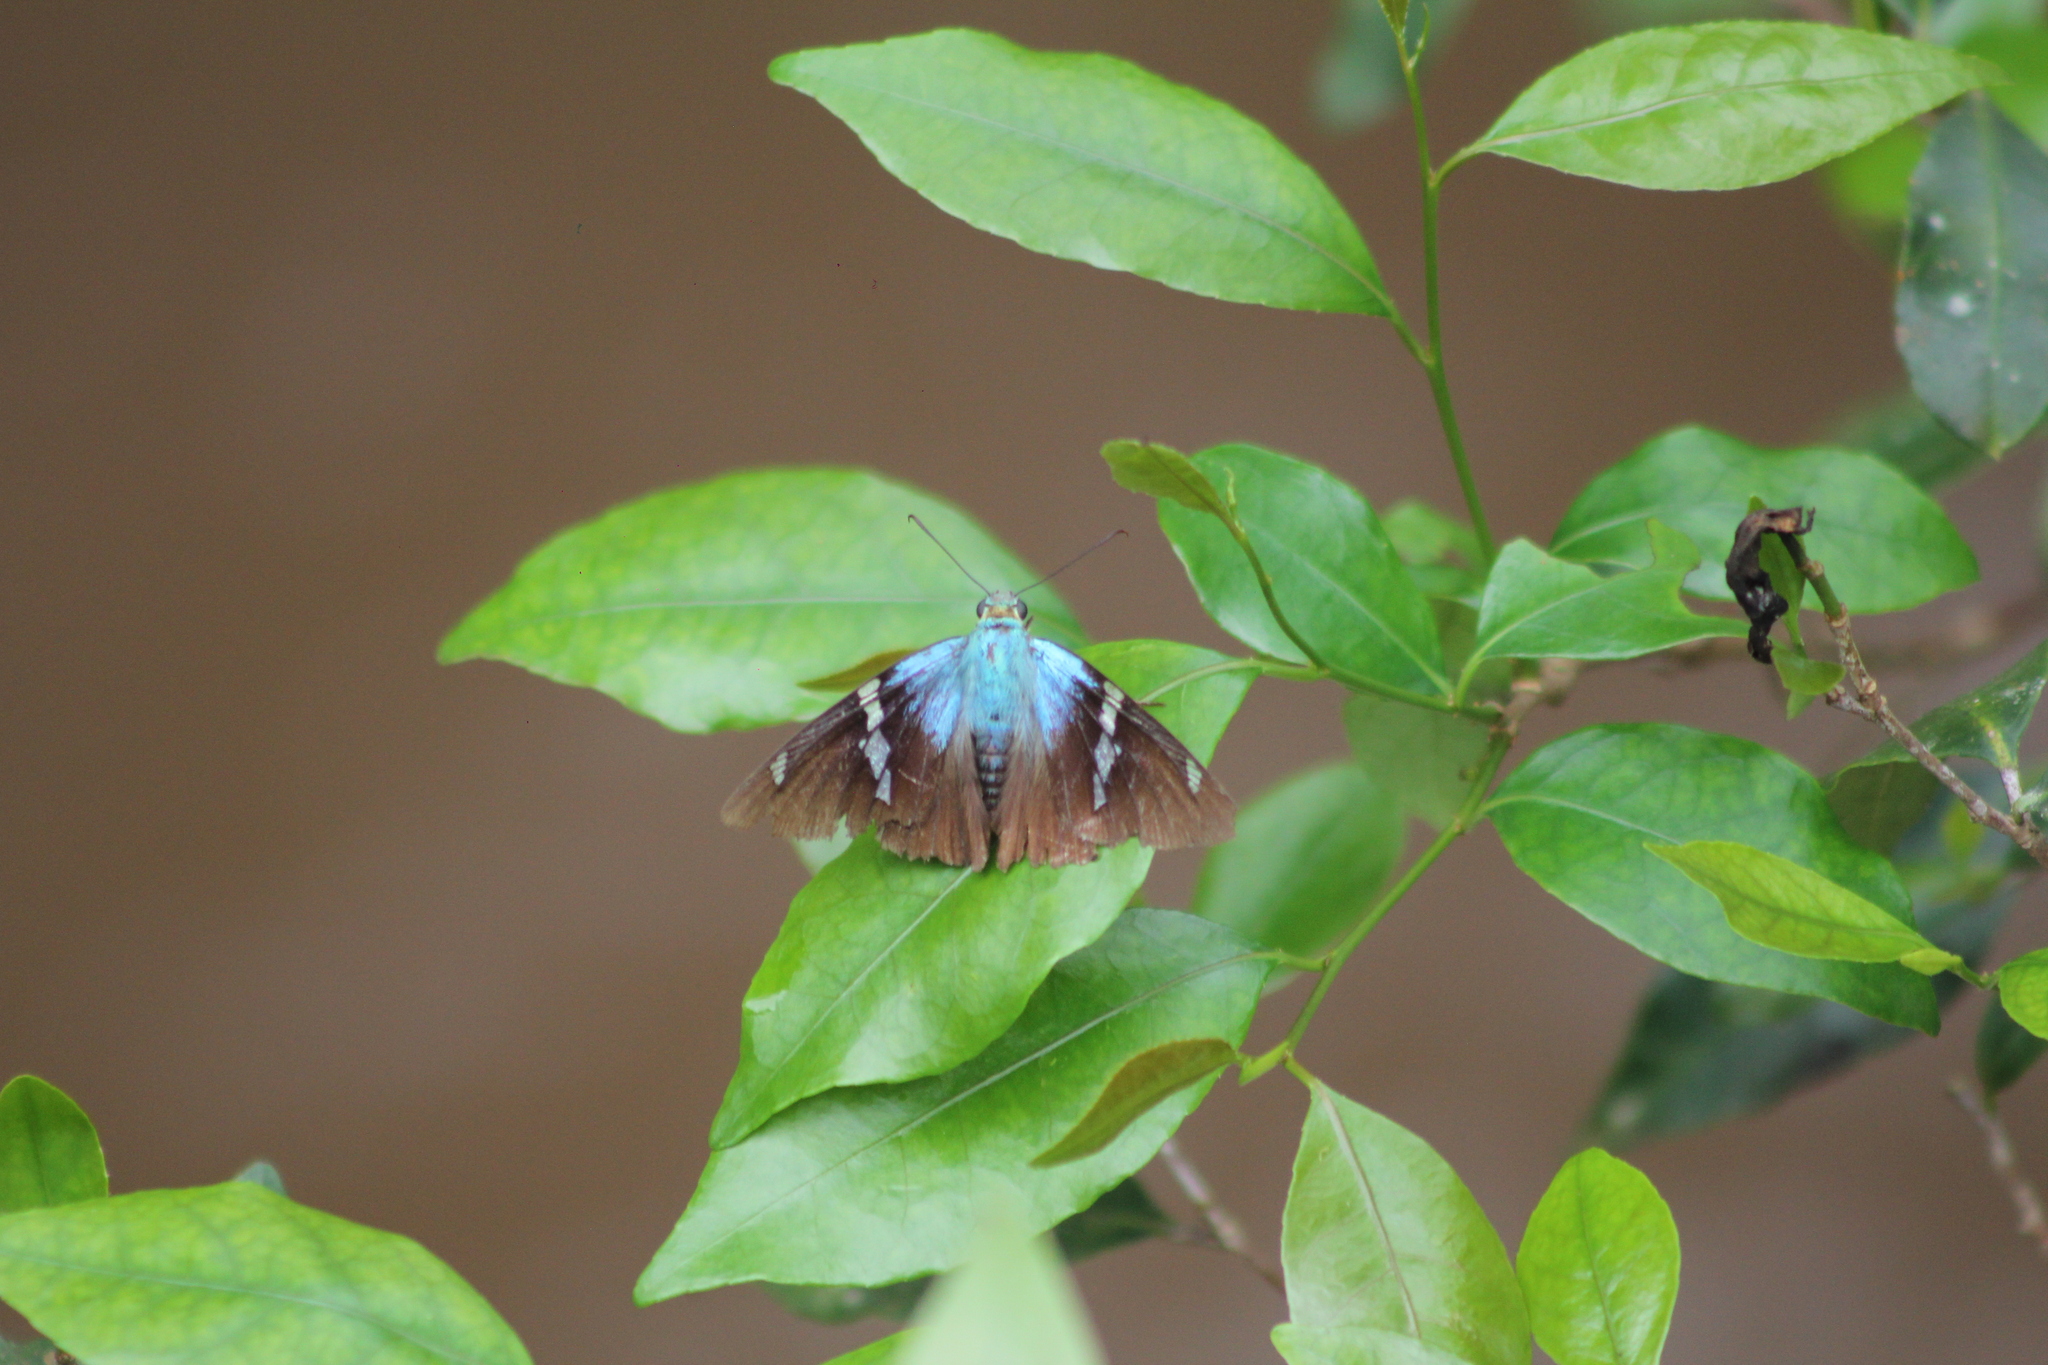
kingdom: Animalia
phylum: Arthropoda
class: Insecta
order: Lepidoptera
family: Hesperiidae
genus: Astraptes
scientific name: Astraptes fulgerator
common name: Two-barred flasher
